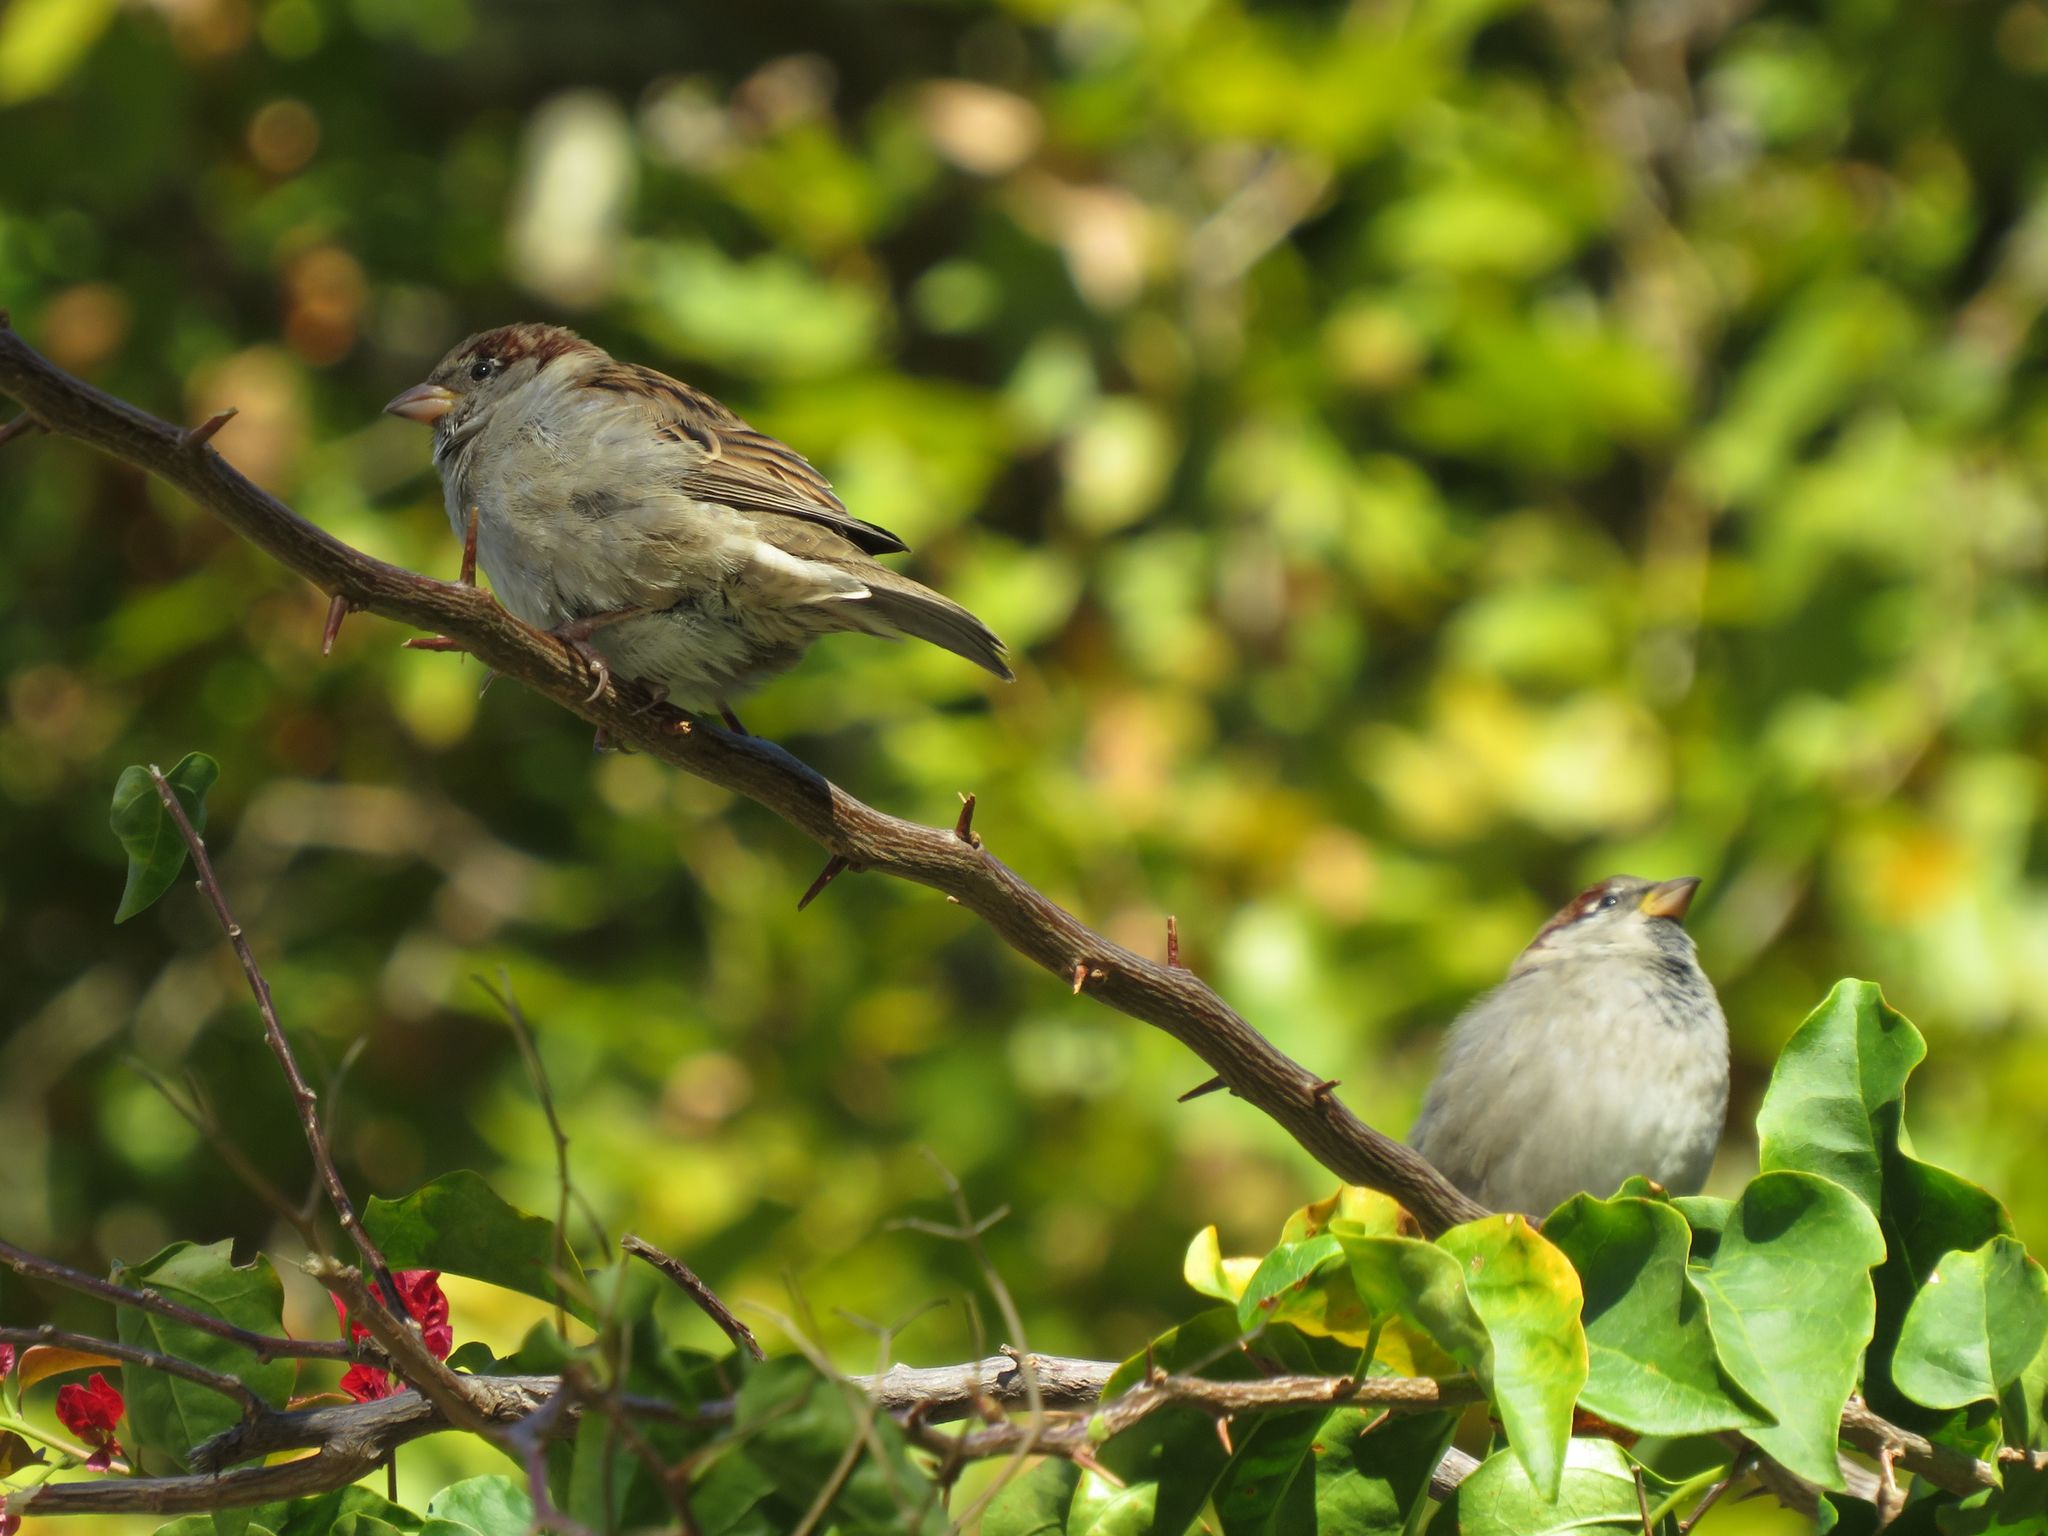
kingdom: Animalia
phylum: Chordata
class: Aves
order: Passeriformes
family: Passeridae
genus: Passer
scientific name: Passer domesticus
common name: House sparrow
